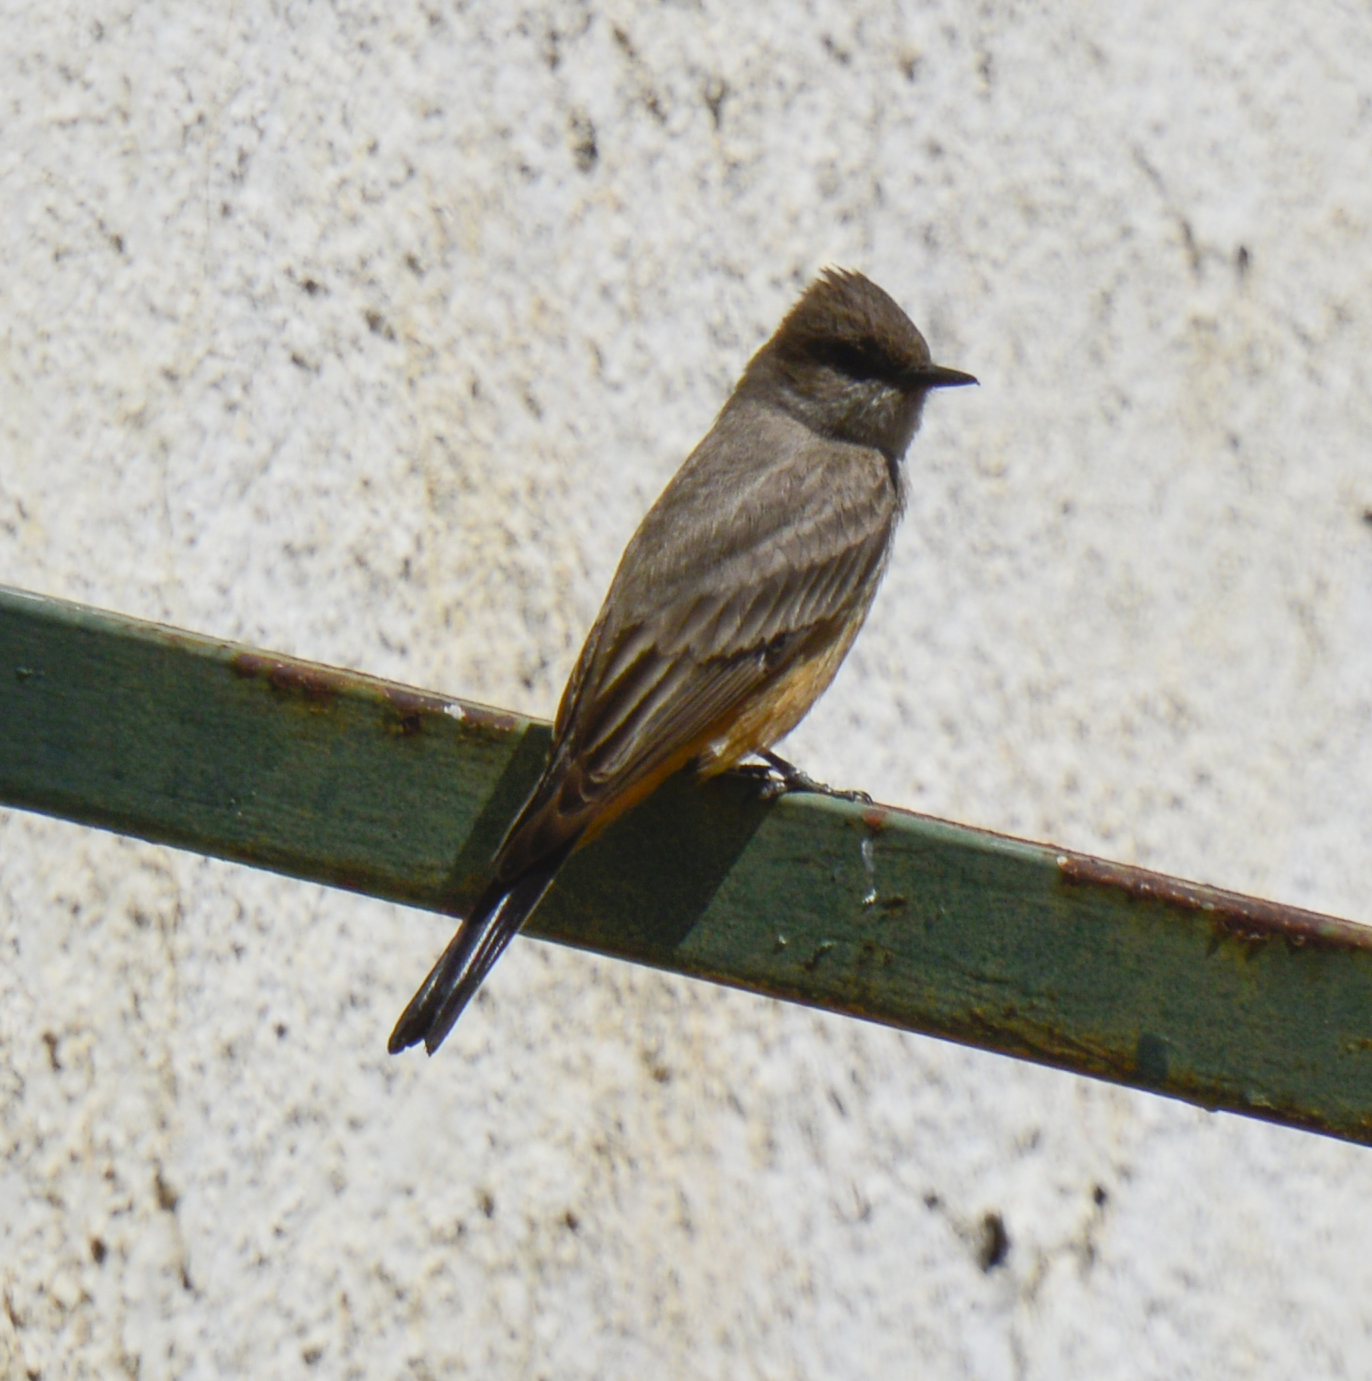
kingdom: Animalia
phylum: Chordata
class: Aves
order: Passeriformes
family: Tyrannidae
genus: Sayornis
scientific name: Sayornis saya
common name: Say's phoebe
